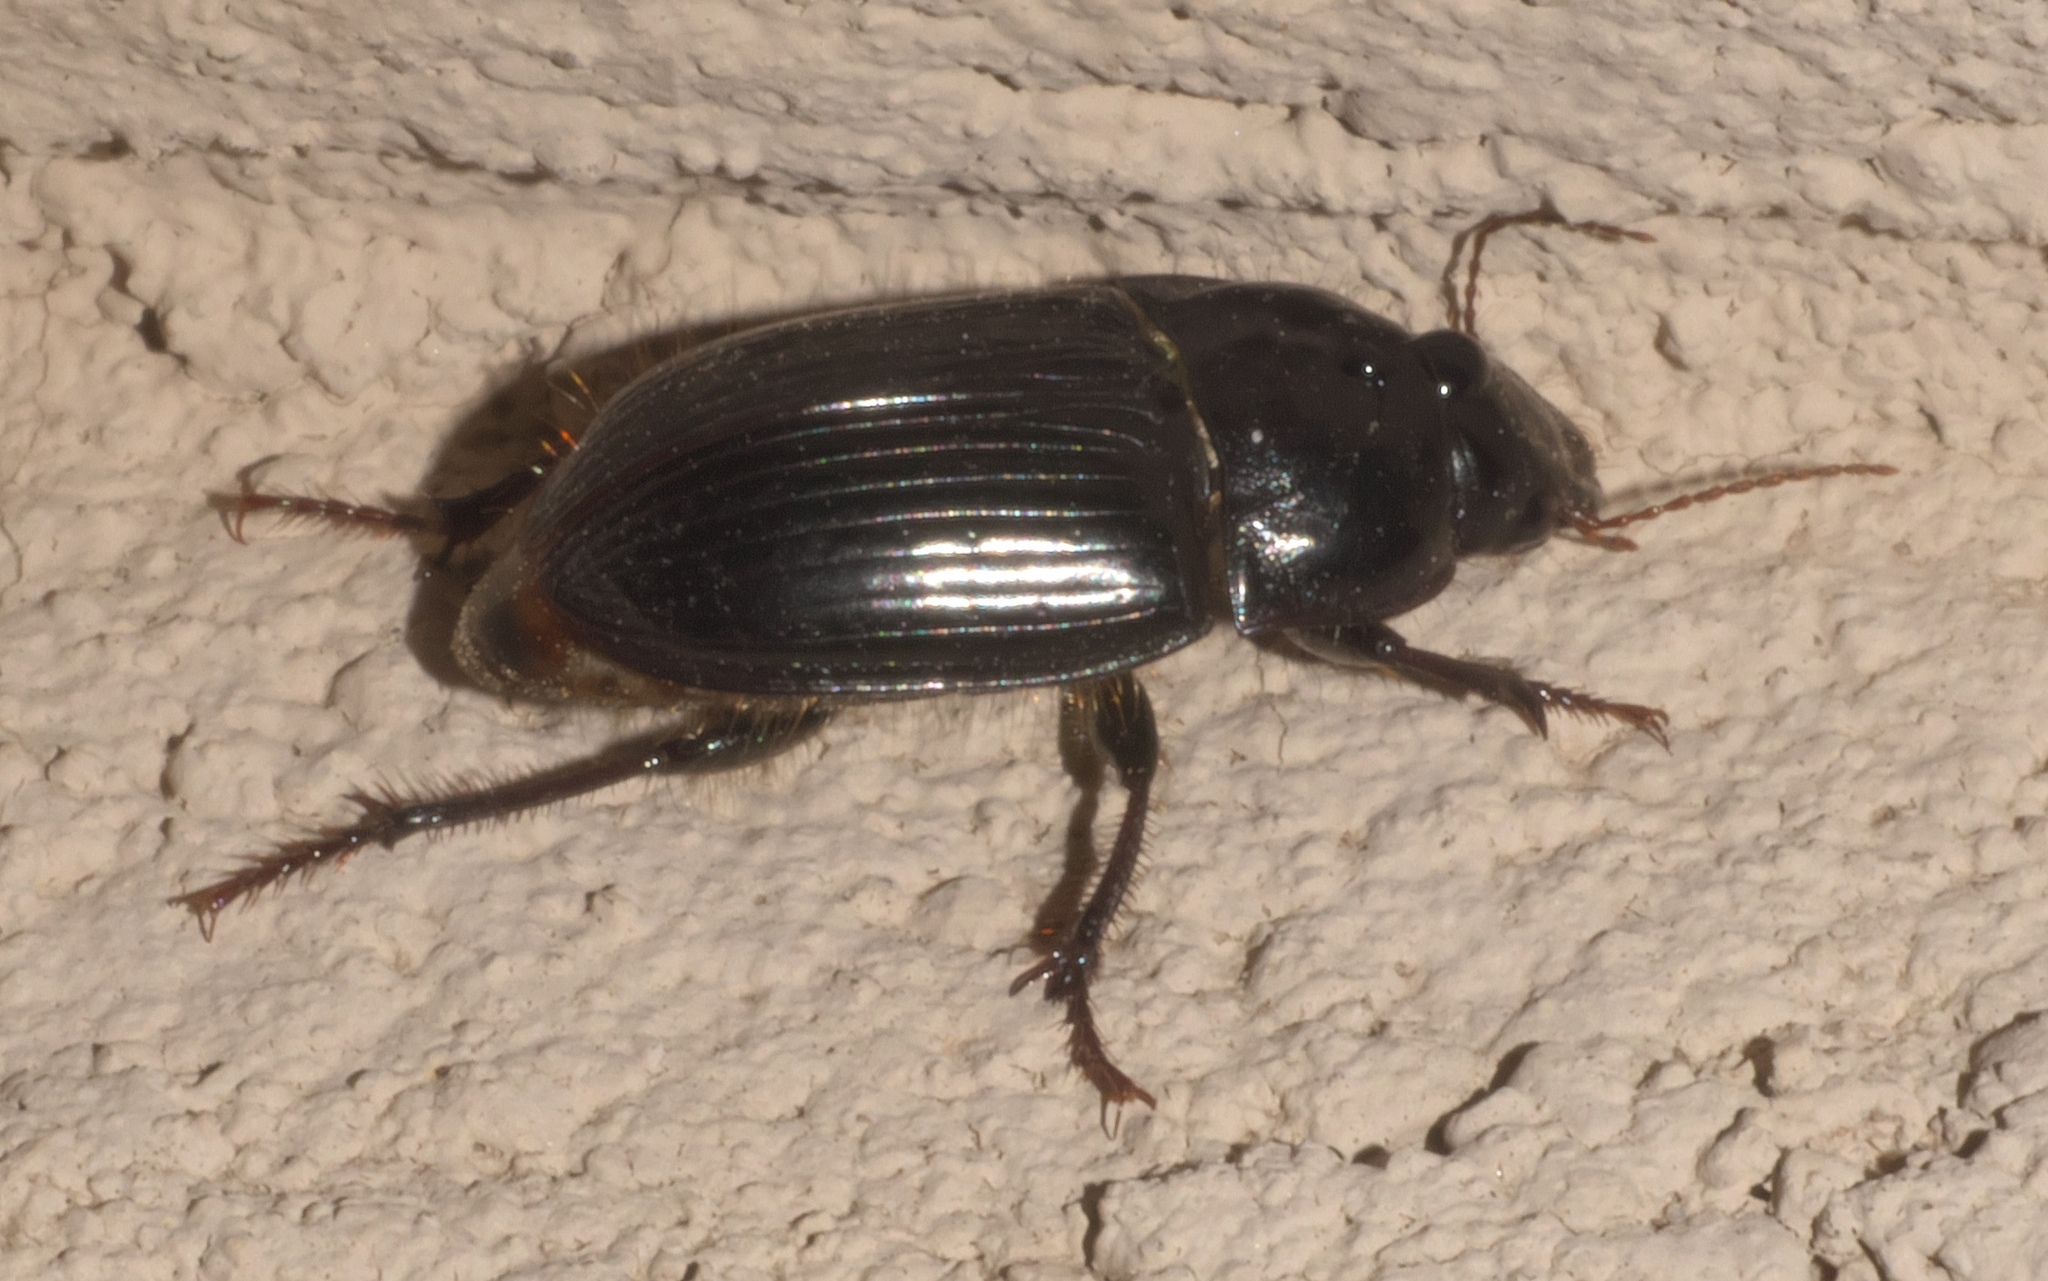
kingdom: Animalia
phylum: Arthropoda
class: Insecta
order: Coleoptera
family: Carabidae
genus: Euryderus
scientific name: Euryderus grossus
